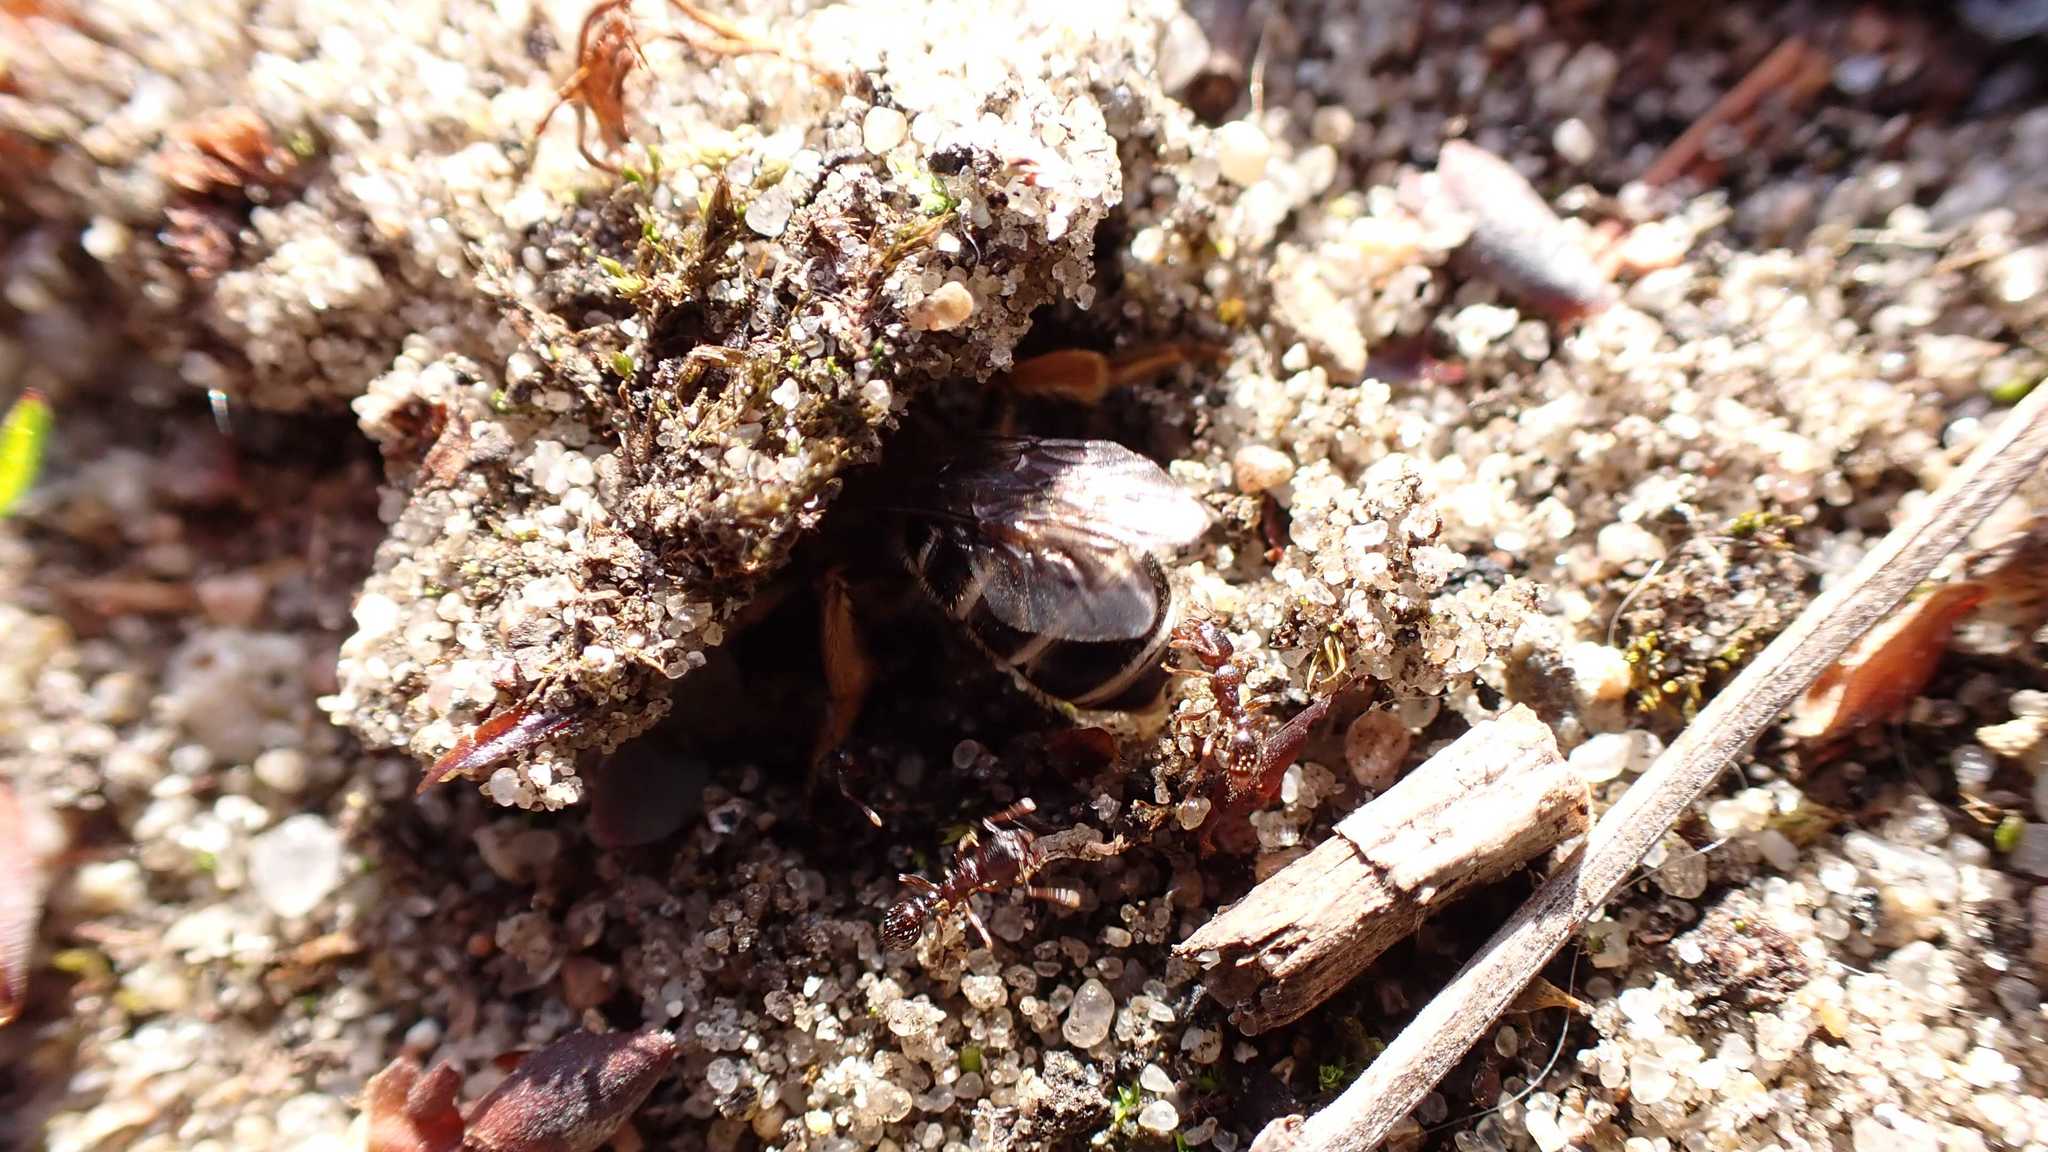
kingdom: Animalia
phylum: Arthropoda
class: Insecta
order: Hymenoptera
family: Formicidae
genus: Tetramorium
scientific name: Tetramorium
